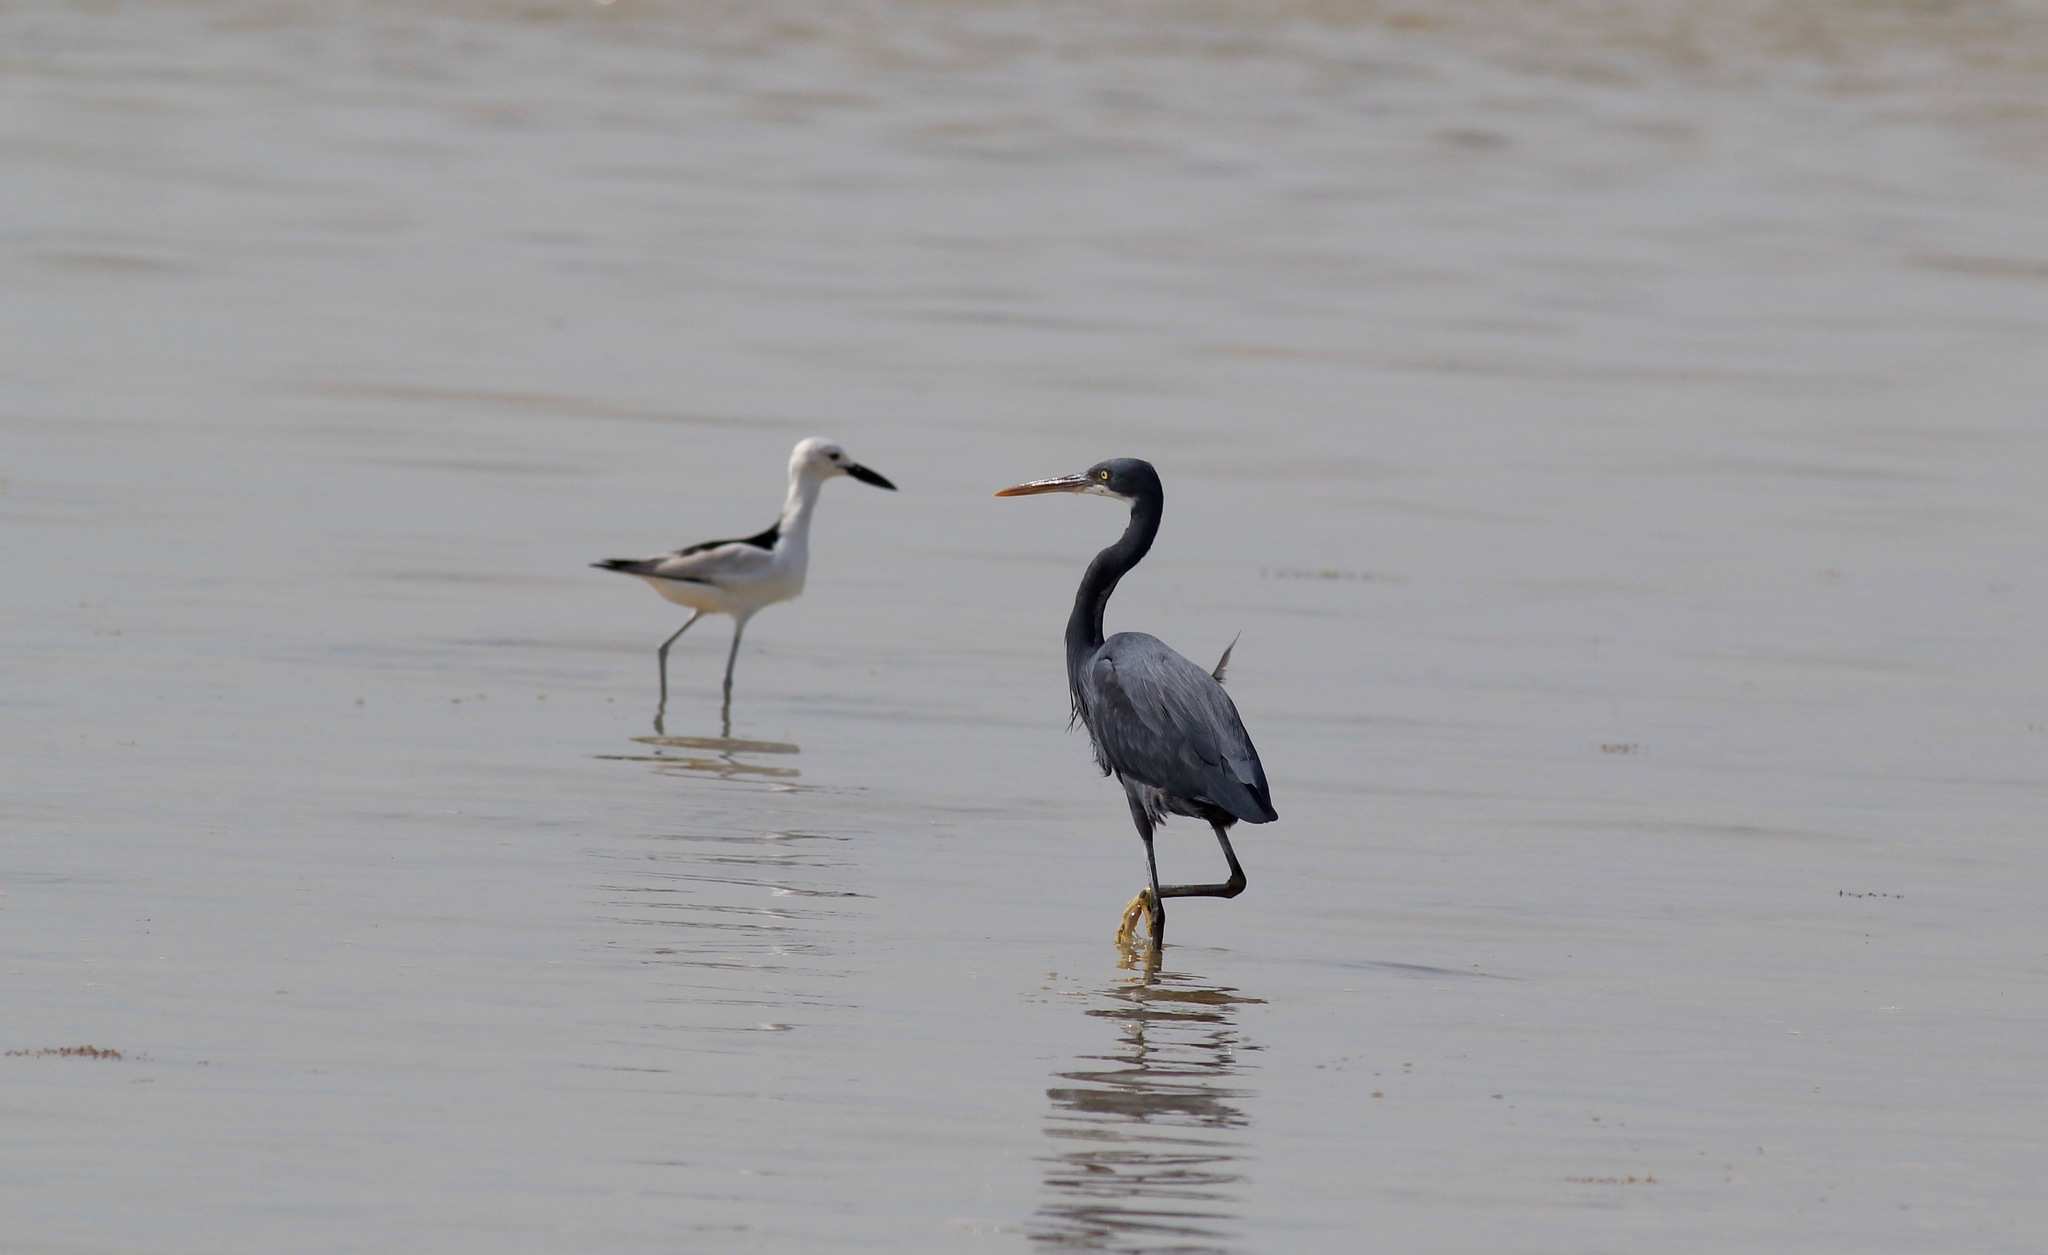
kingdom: Animalia
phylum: Chordata
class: Aves
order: Pelecaniformes
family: Ardeidae
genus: Egretta
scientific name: Egretta gularis
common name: Western reef-heron
